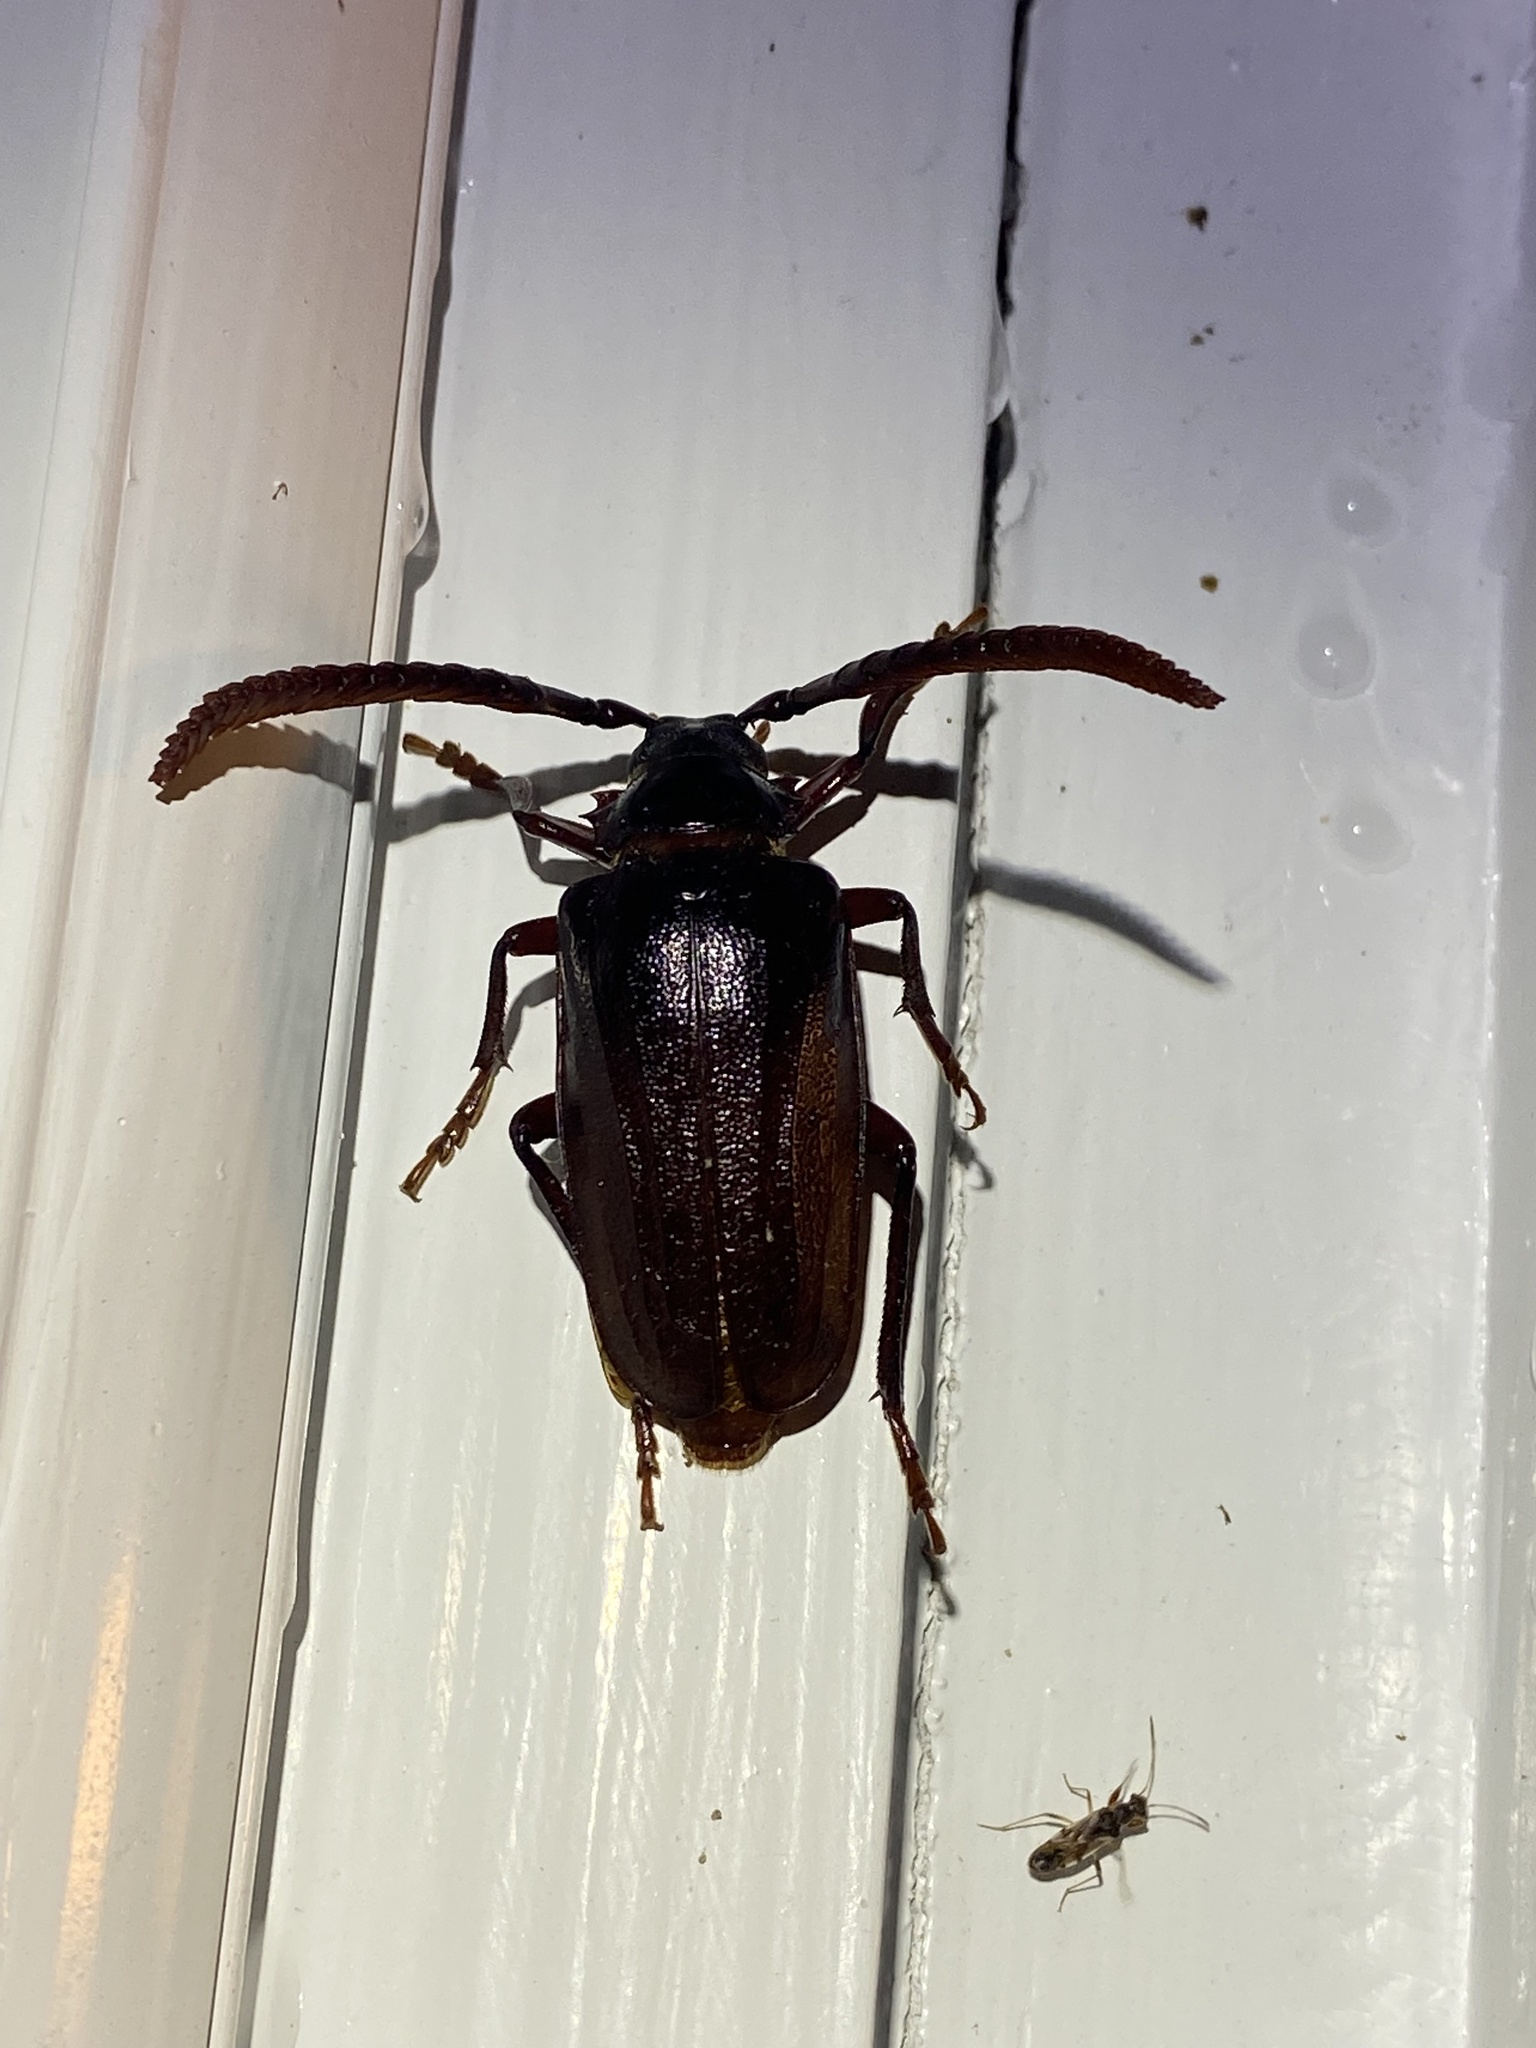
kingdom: Animalia
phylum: Arthropoda
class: Insecta
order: Coleoptera
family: Cerambycidae
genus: Prionus
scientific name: Prionus imbricornis
